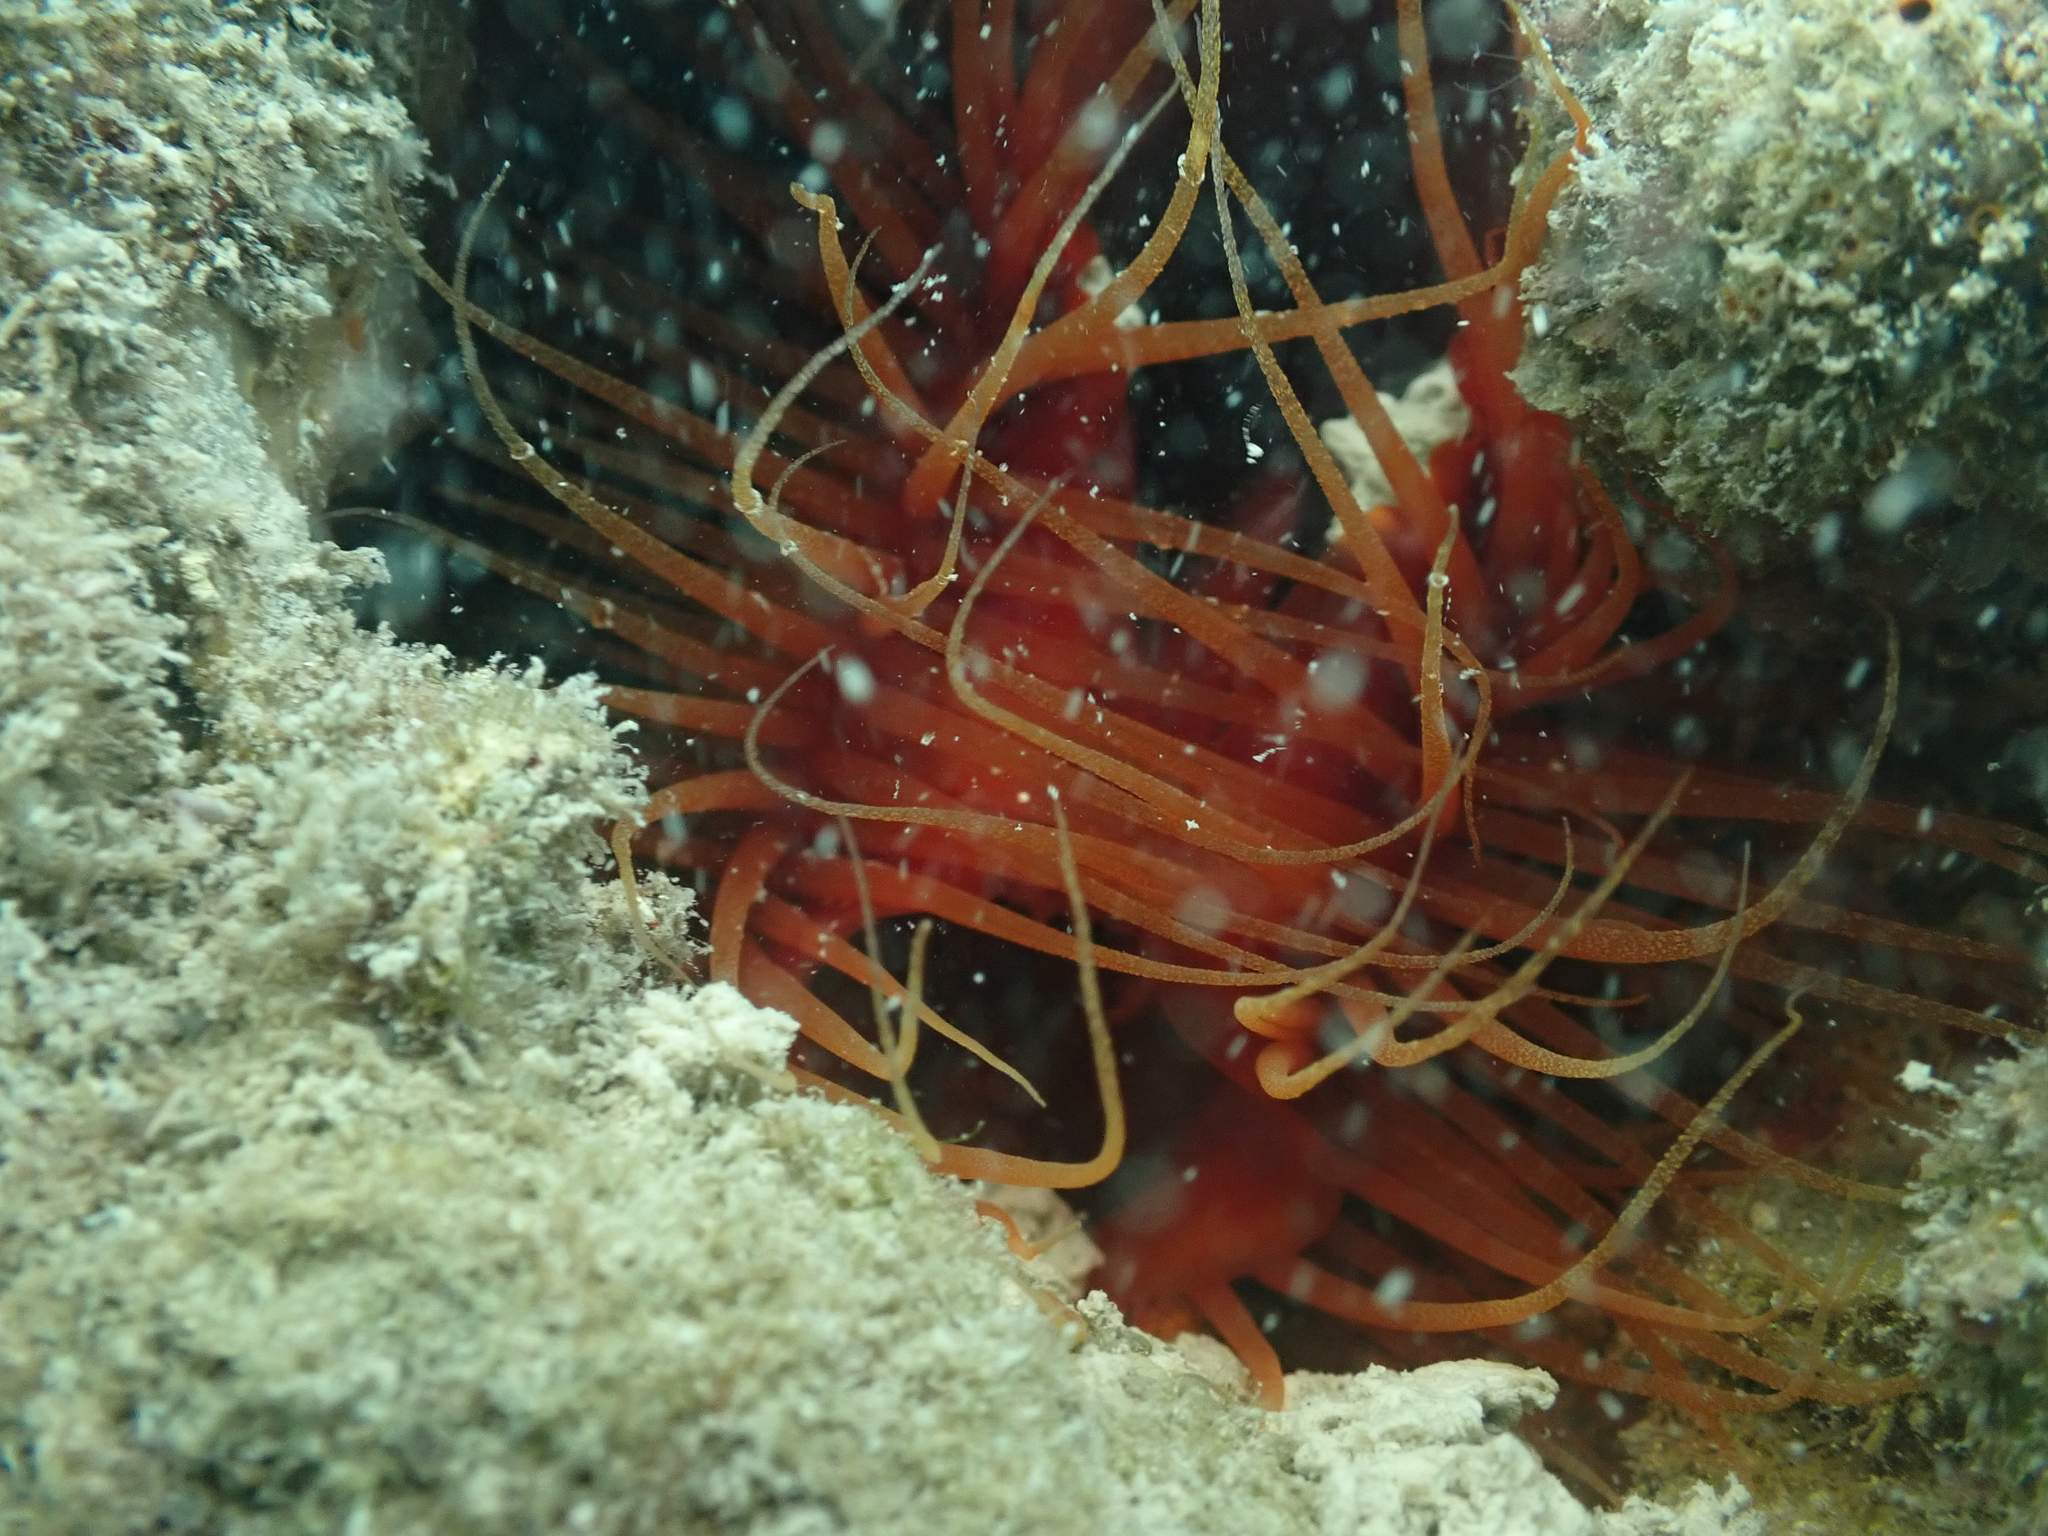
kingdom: Animalia
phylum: Mollusca
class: Bivalvia
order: Limida
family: Limidae
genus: Ctenoides
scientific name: Ctenoides scaber
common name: Rough fileclam
